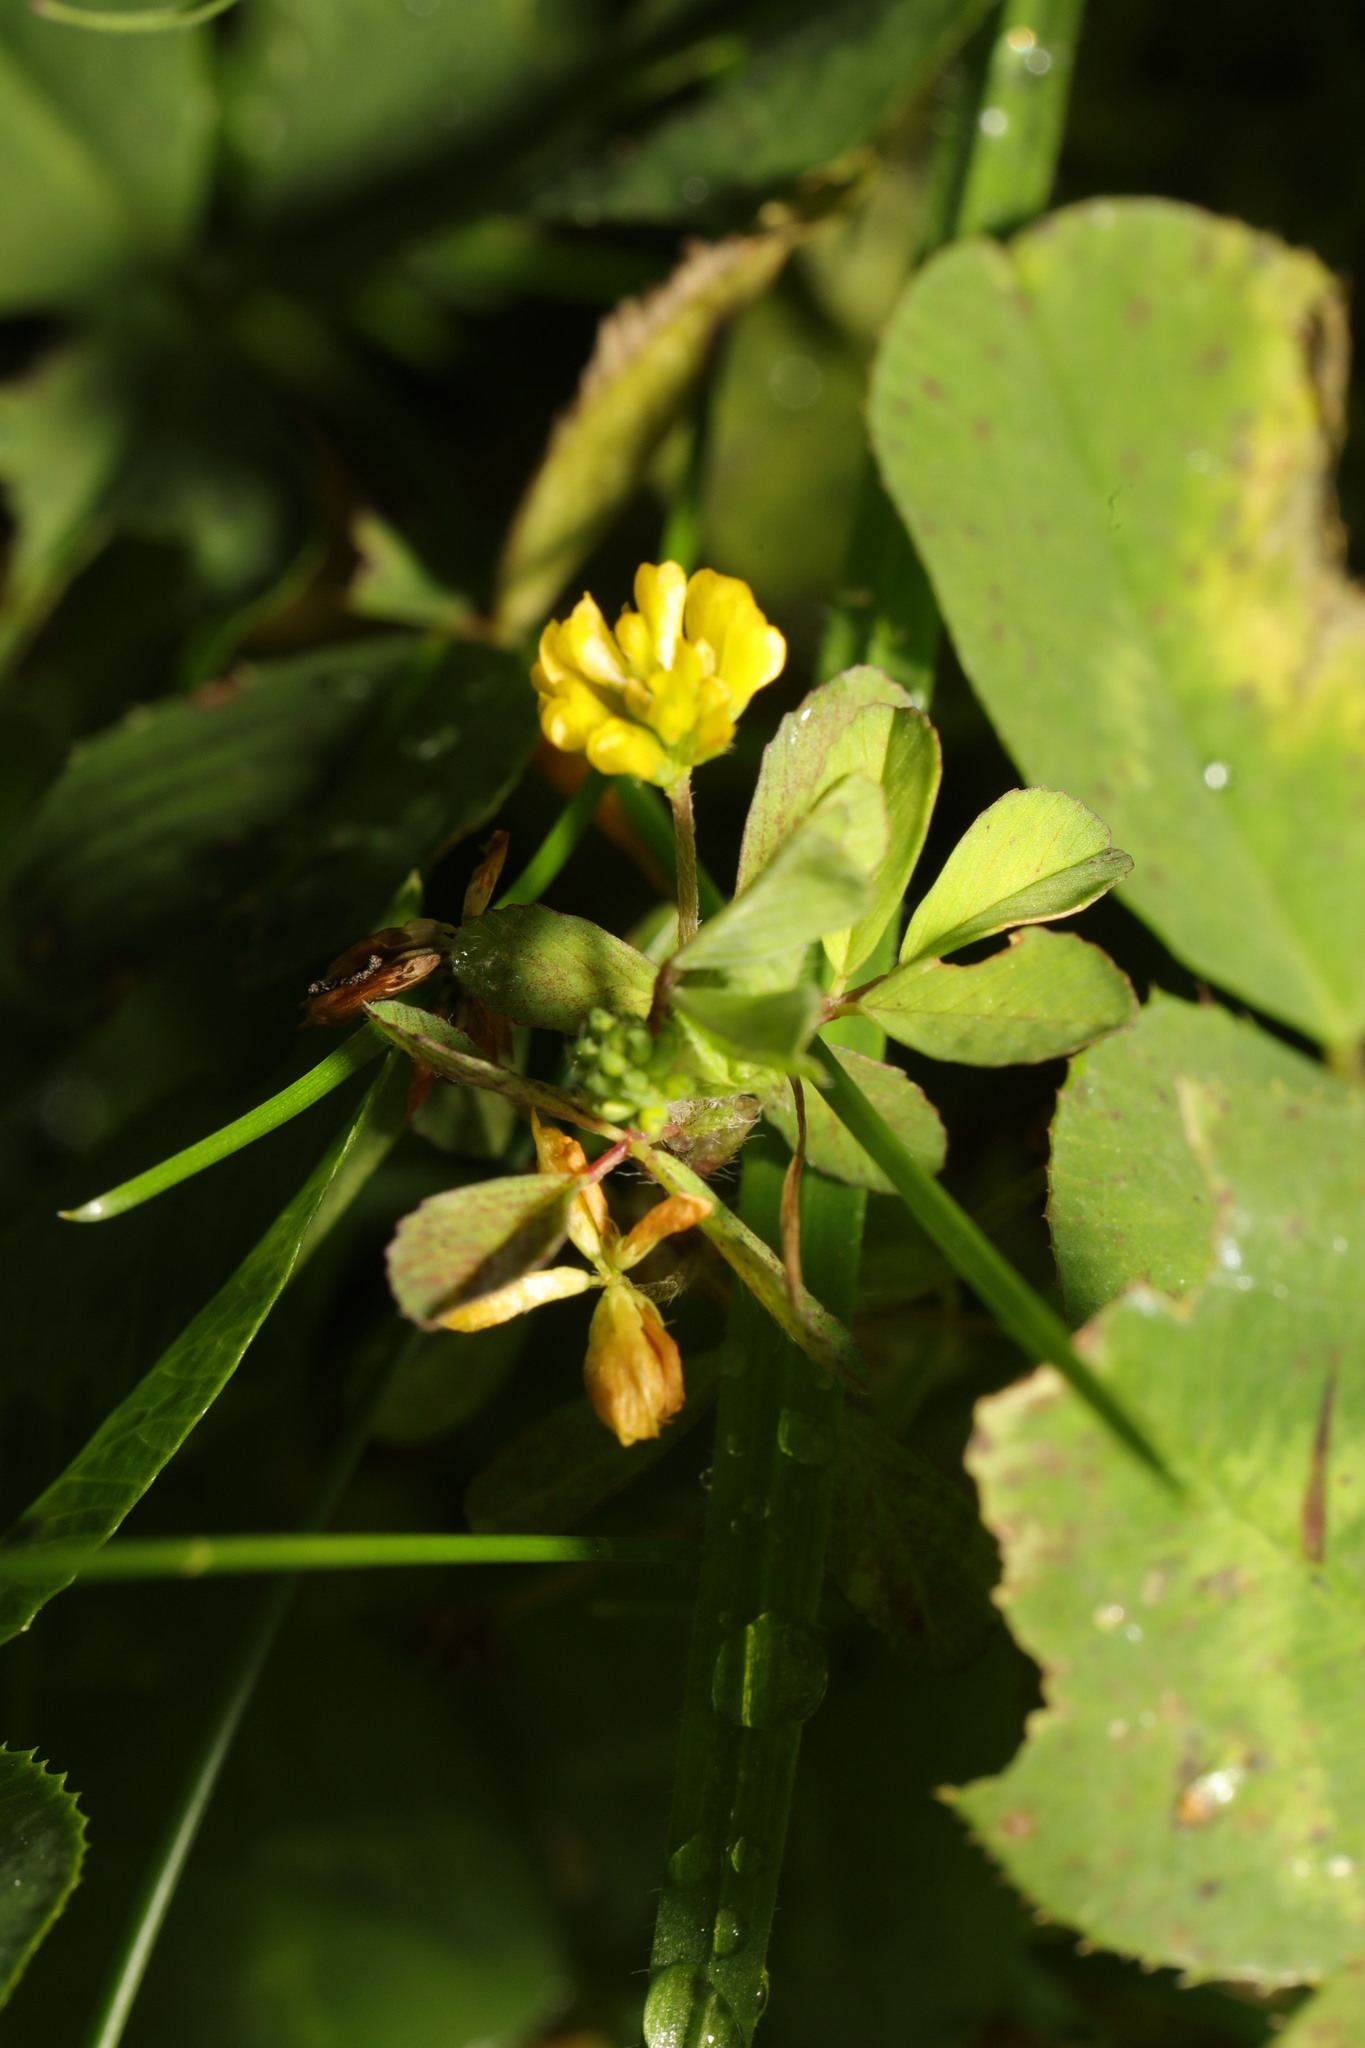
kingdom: Plantae
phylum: Tracheophyta
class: Magnoliopsida
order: Fabales
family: Fabaceae
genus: Trifolium
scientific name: Trifolium dubium
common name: Suckling clover
